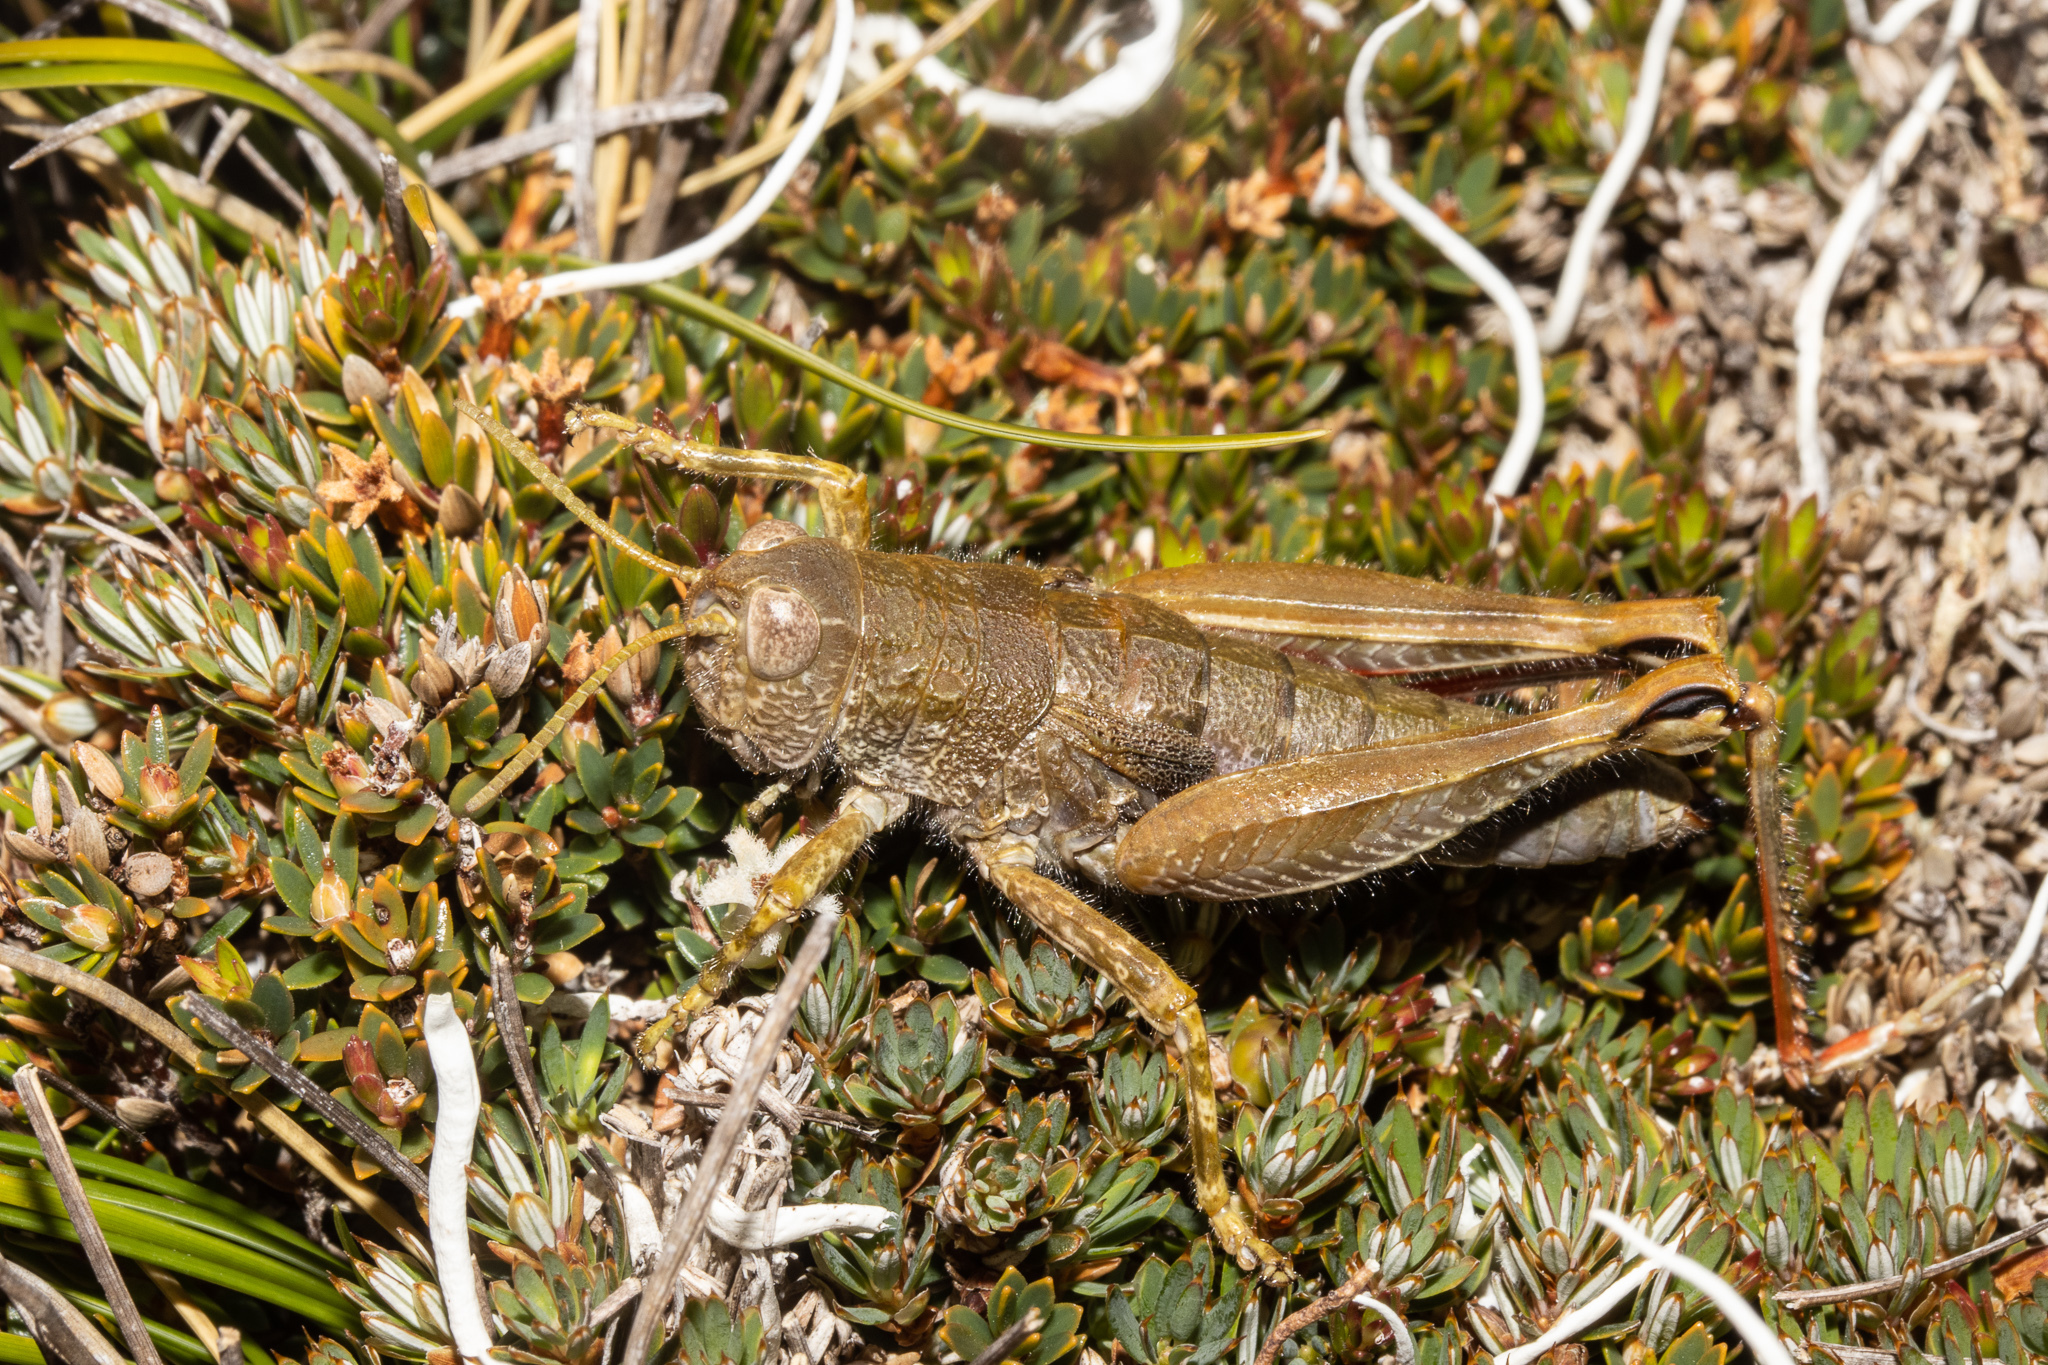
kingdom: Animalia
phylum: Arthropoda
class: Insecta
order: Orthoptera
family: Acrididae
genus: Sigaus
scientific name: Sigaus
